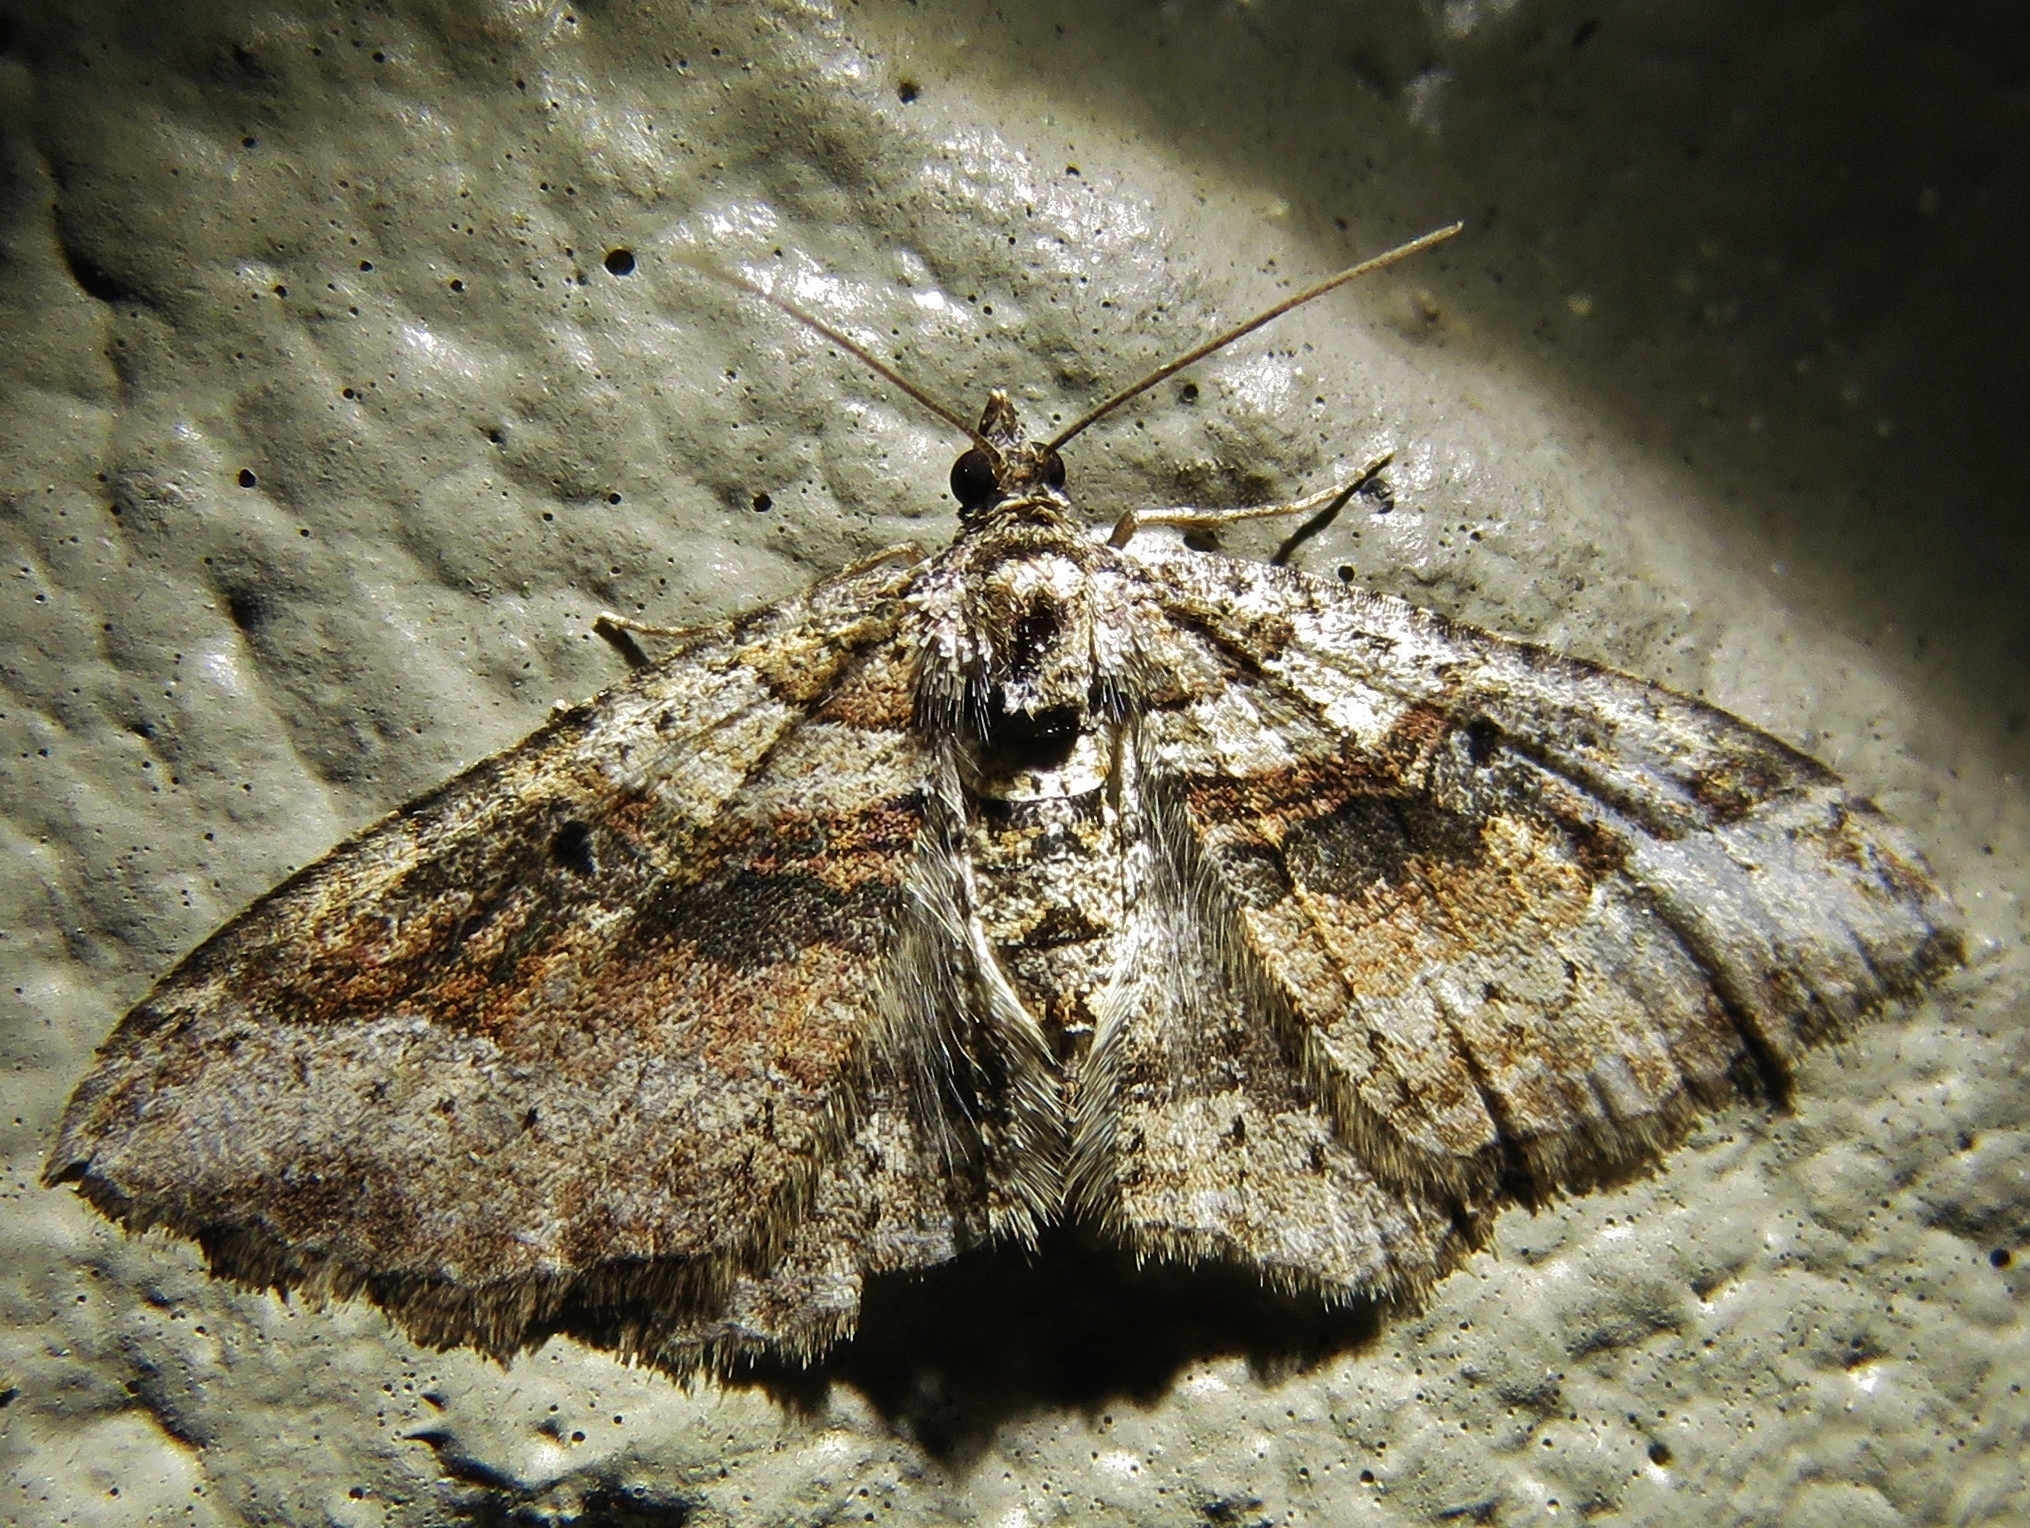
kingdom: Animalia
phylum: Arthropoda
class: Insecta
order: Lepidoptera
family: Geometridae
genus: Costaconvexa
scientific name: Costaconvexa centrostrigaria
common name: Bent-line carpet
